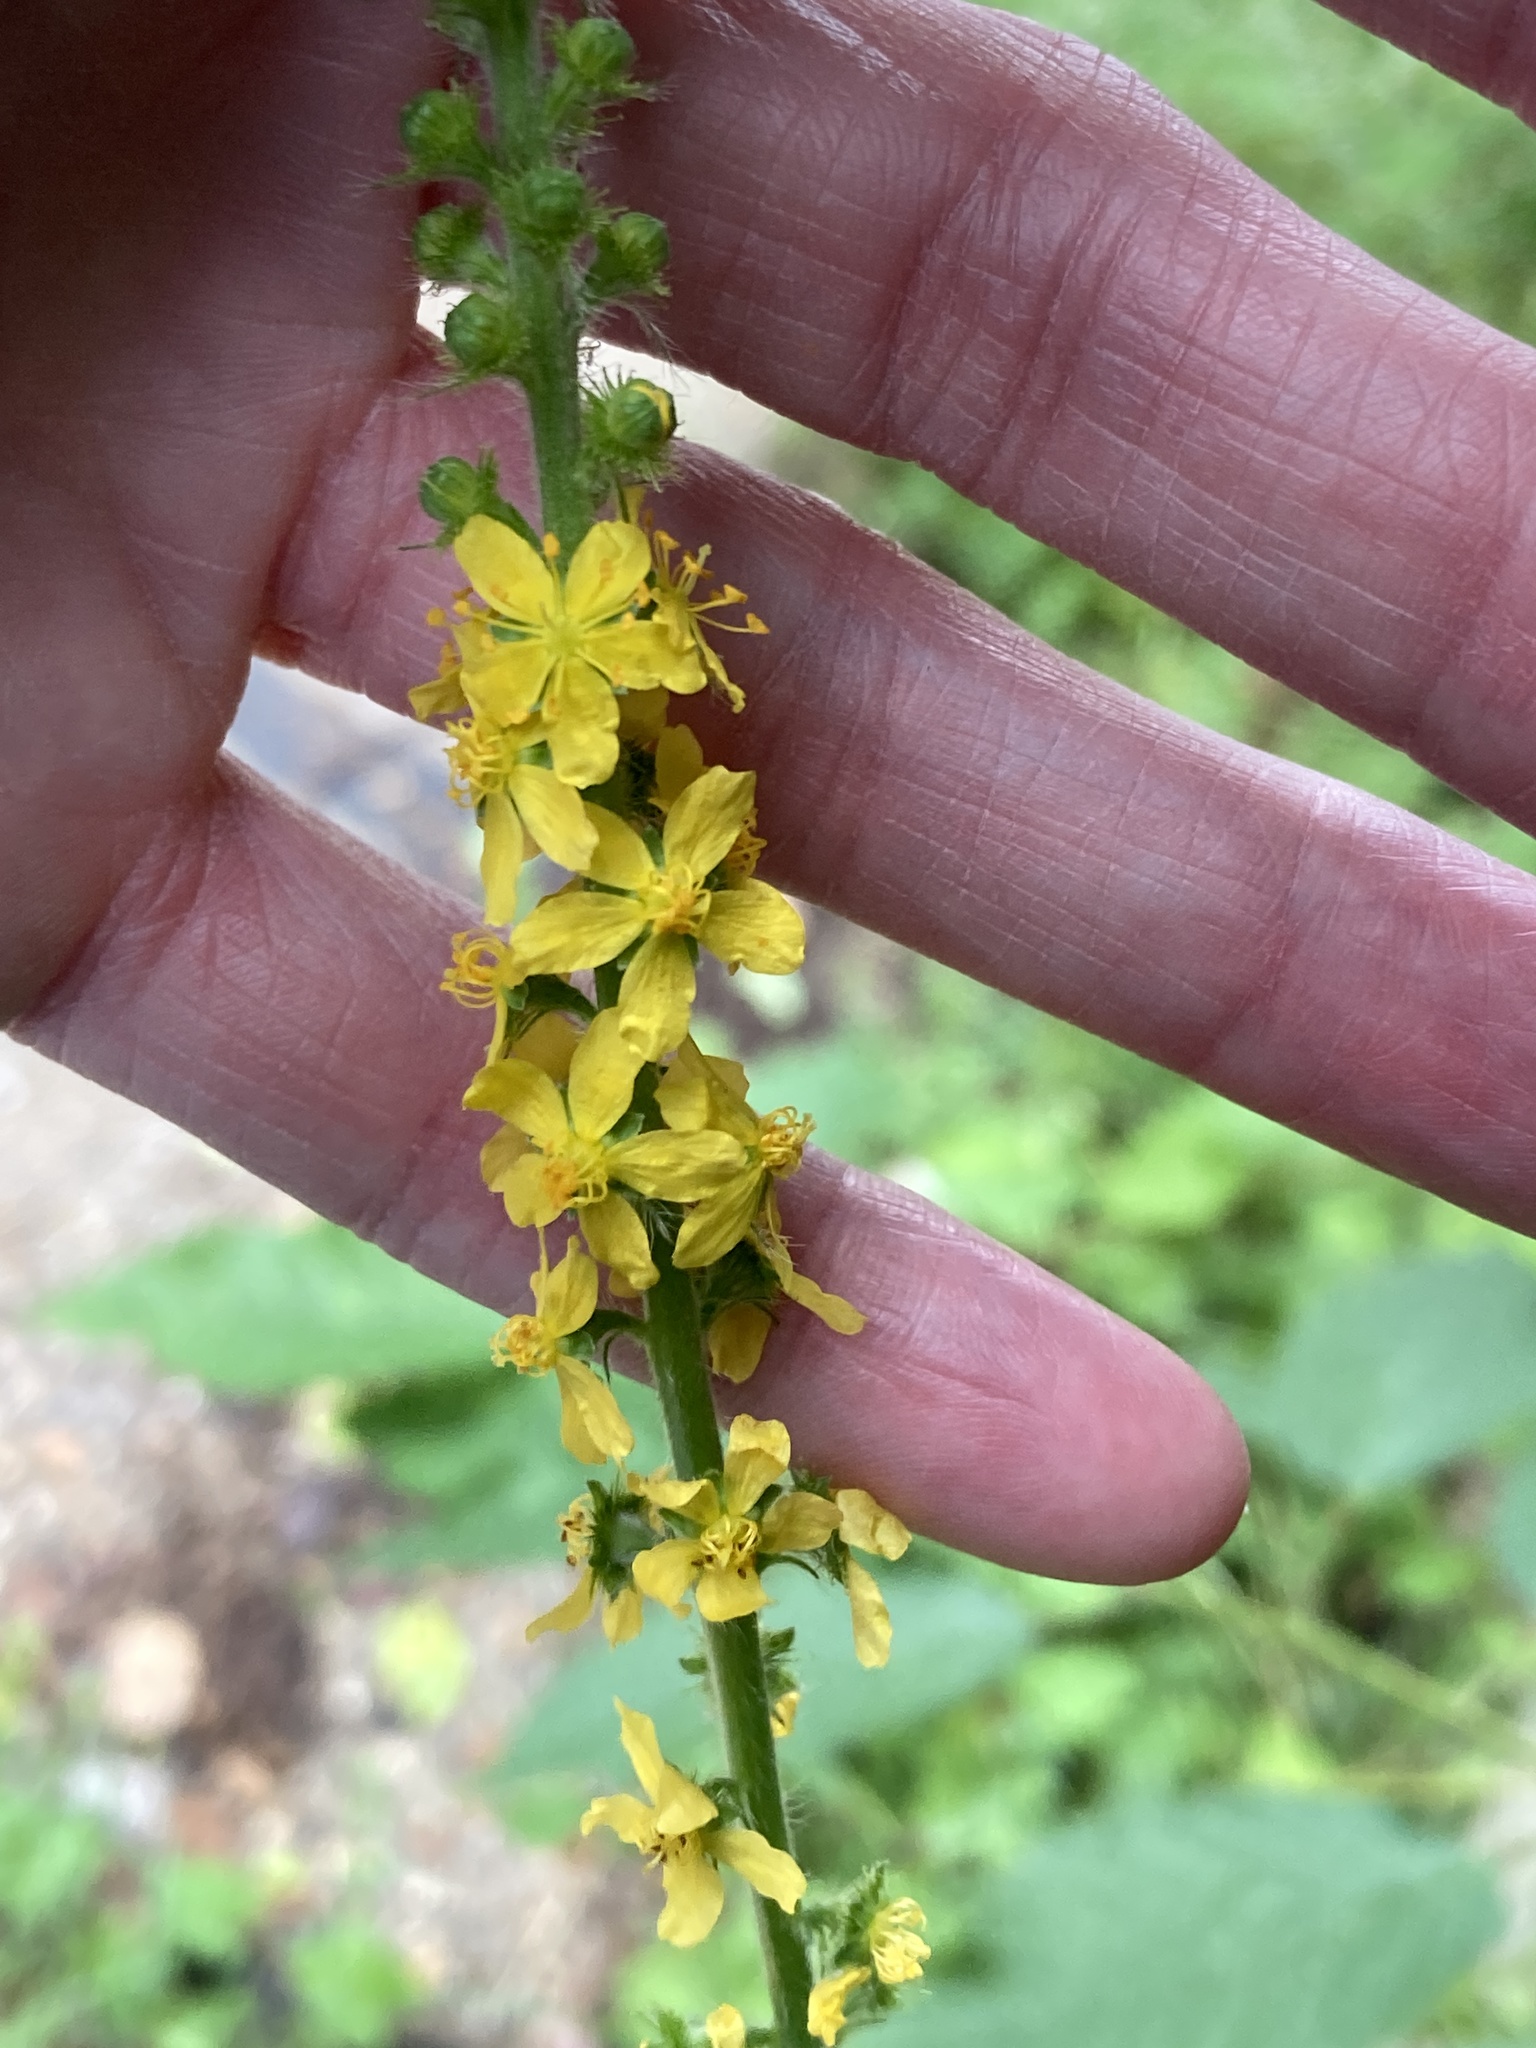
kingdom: Plantae
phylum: Tracheophyta
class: Magnoliopsida
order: Rosales
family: Rosaceae
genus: Agrimonia
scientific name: Agrimonia eupatoria
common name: Agrimony
